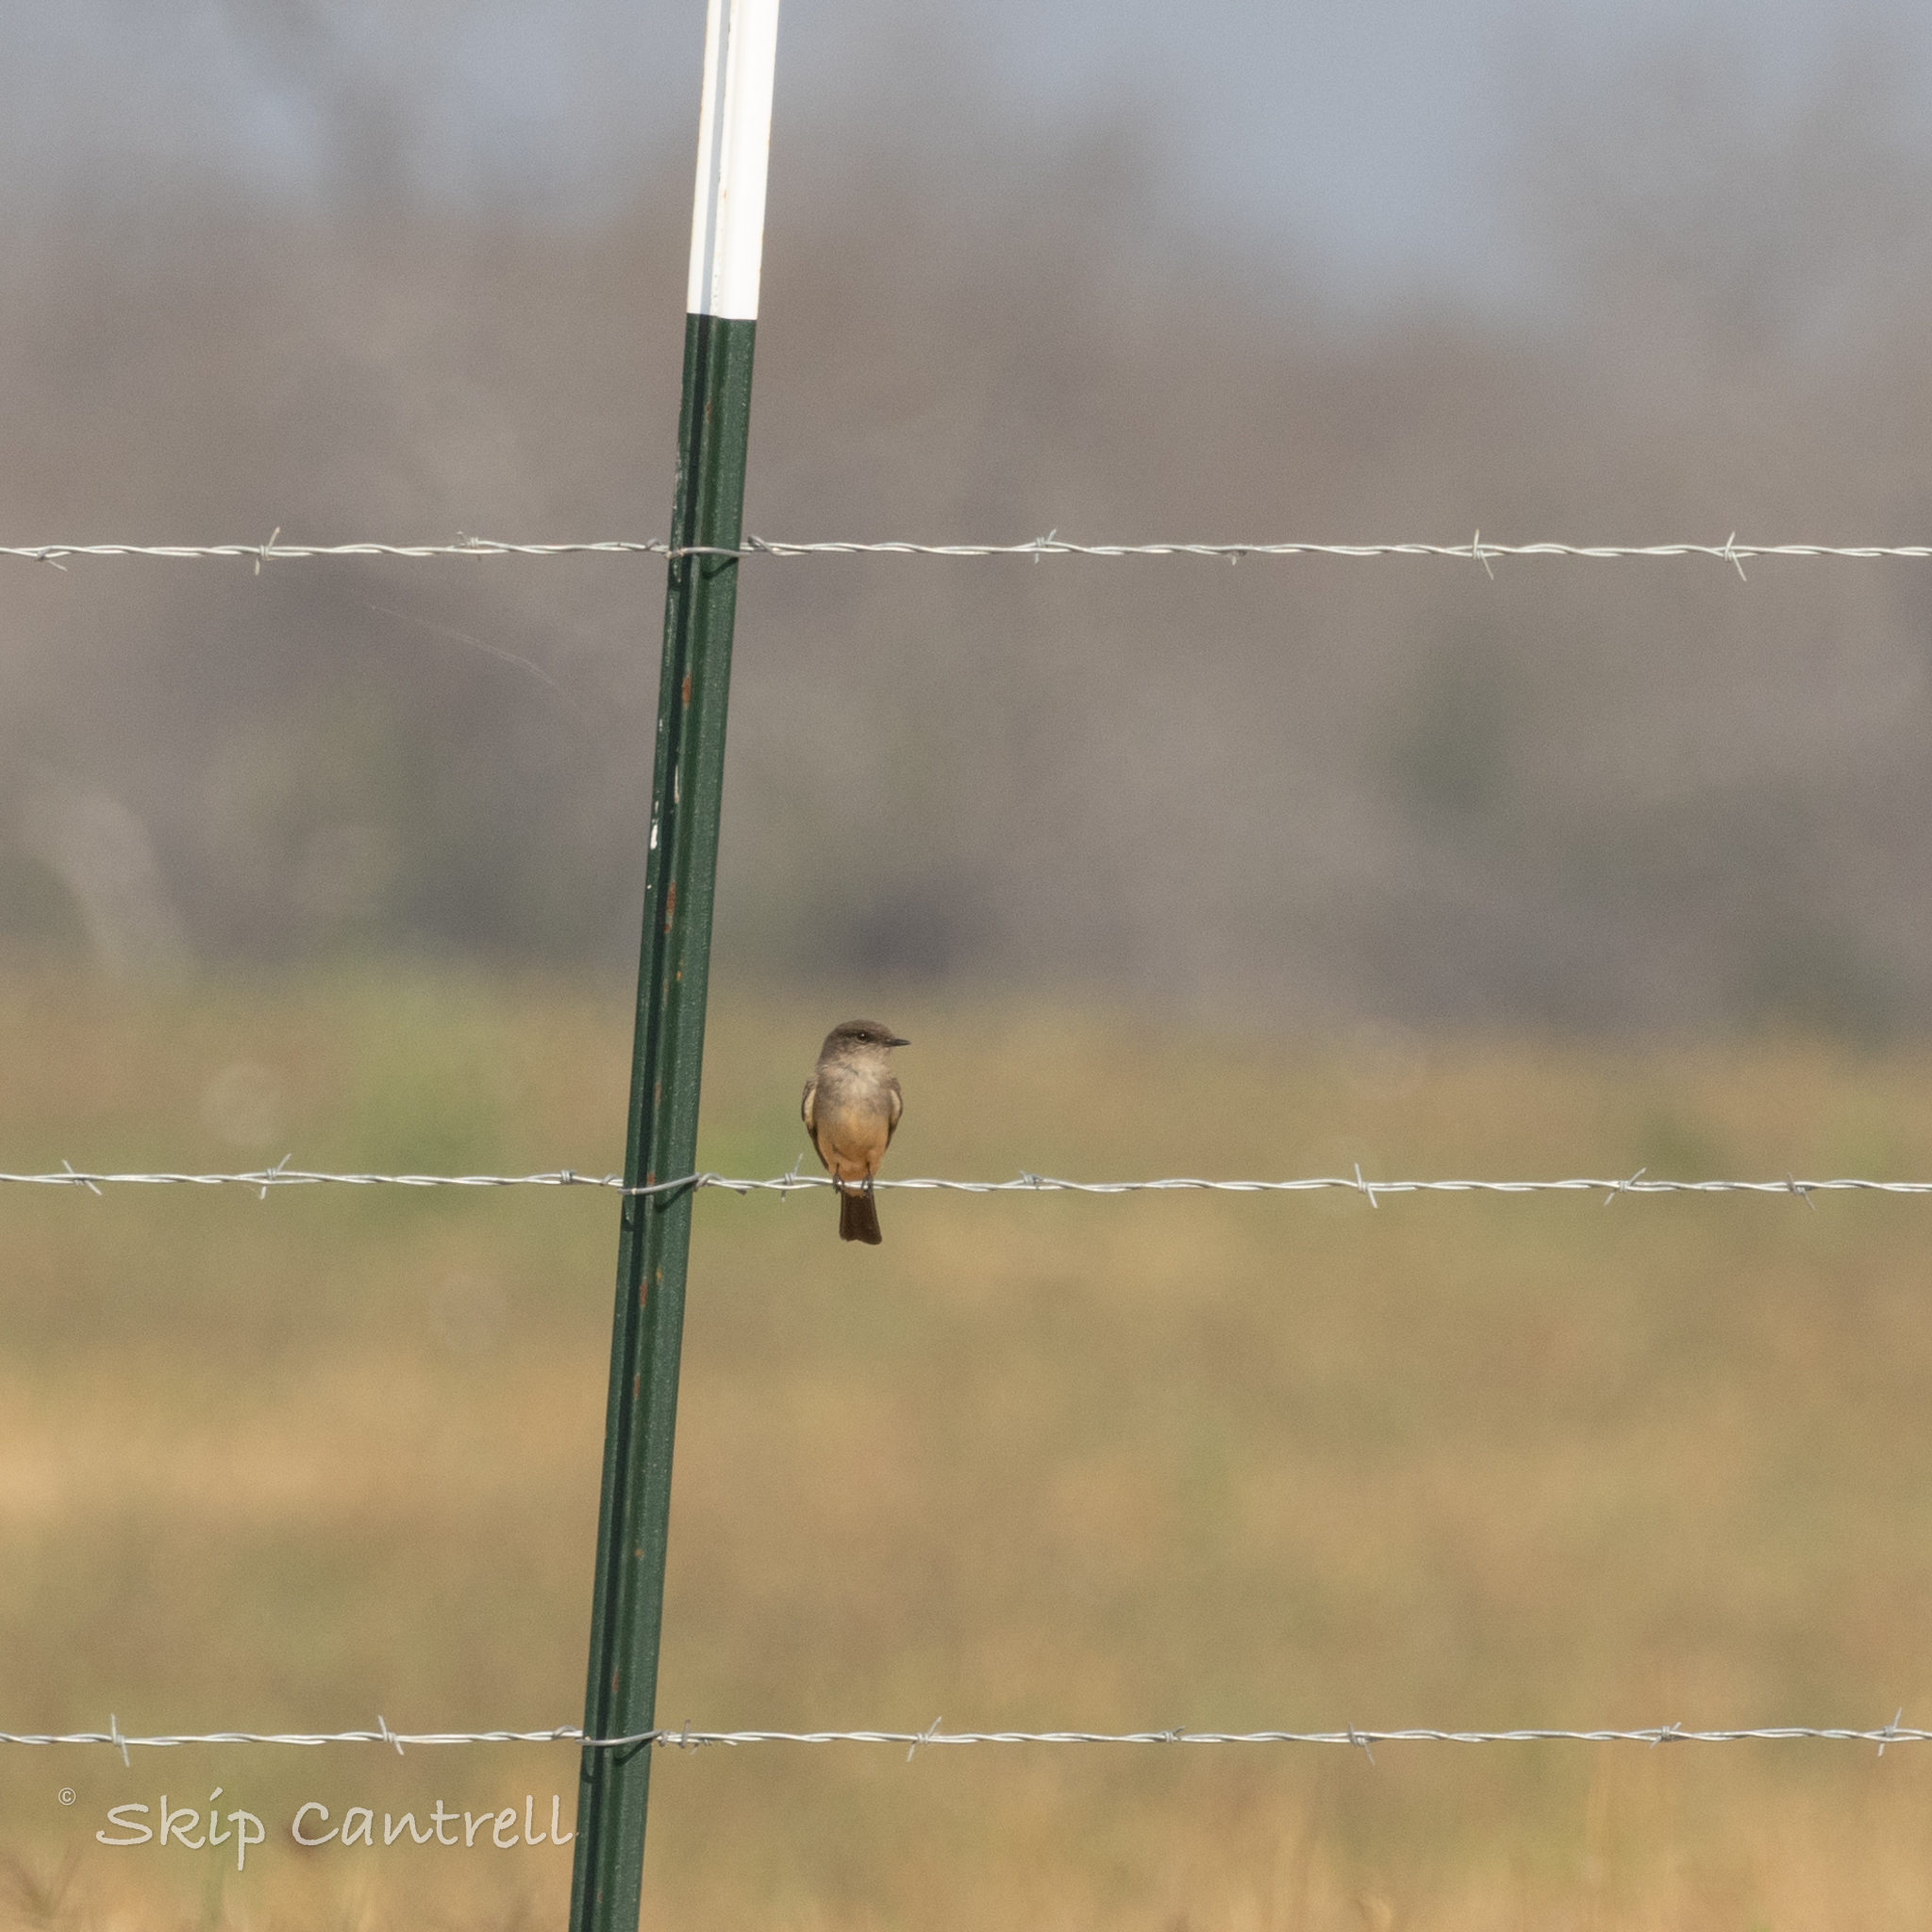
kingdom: Animalia
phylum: Chordata
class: Aves
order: Passeriformes
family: Tyrannidae
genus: Sayornis
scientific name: Sayornis saya
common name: Say's phoebe
